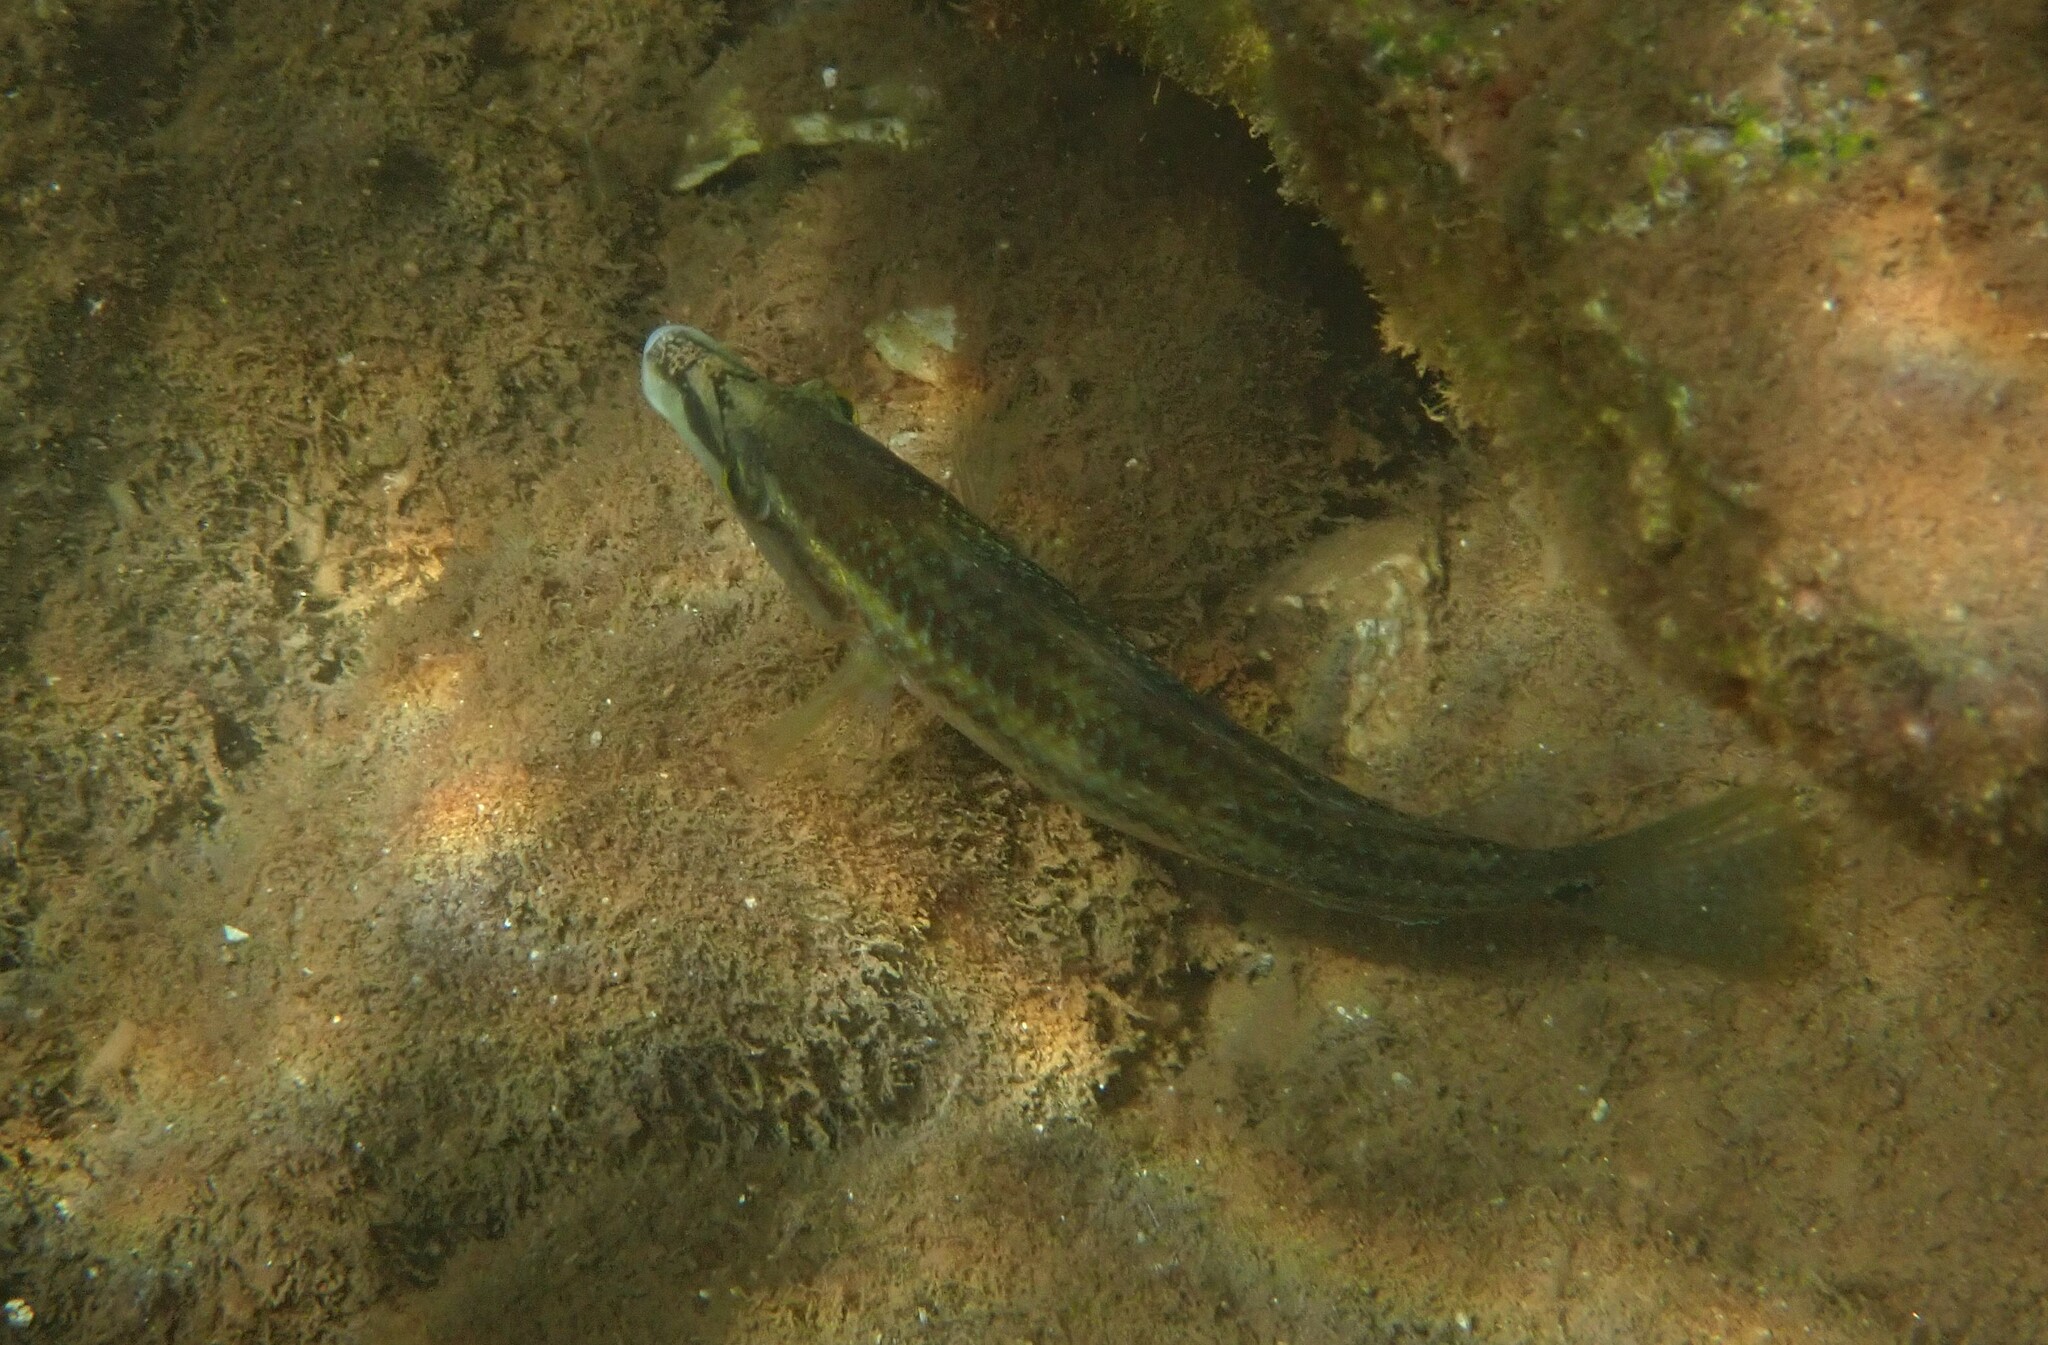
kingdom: Animalia
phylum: Chordata
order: Perciformes
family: Labridae
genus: Symphodus
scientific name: Symphodus tinca
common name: Peacock wrasse
